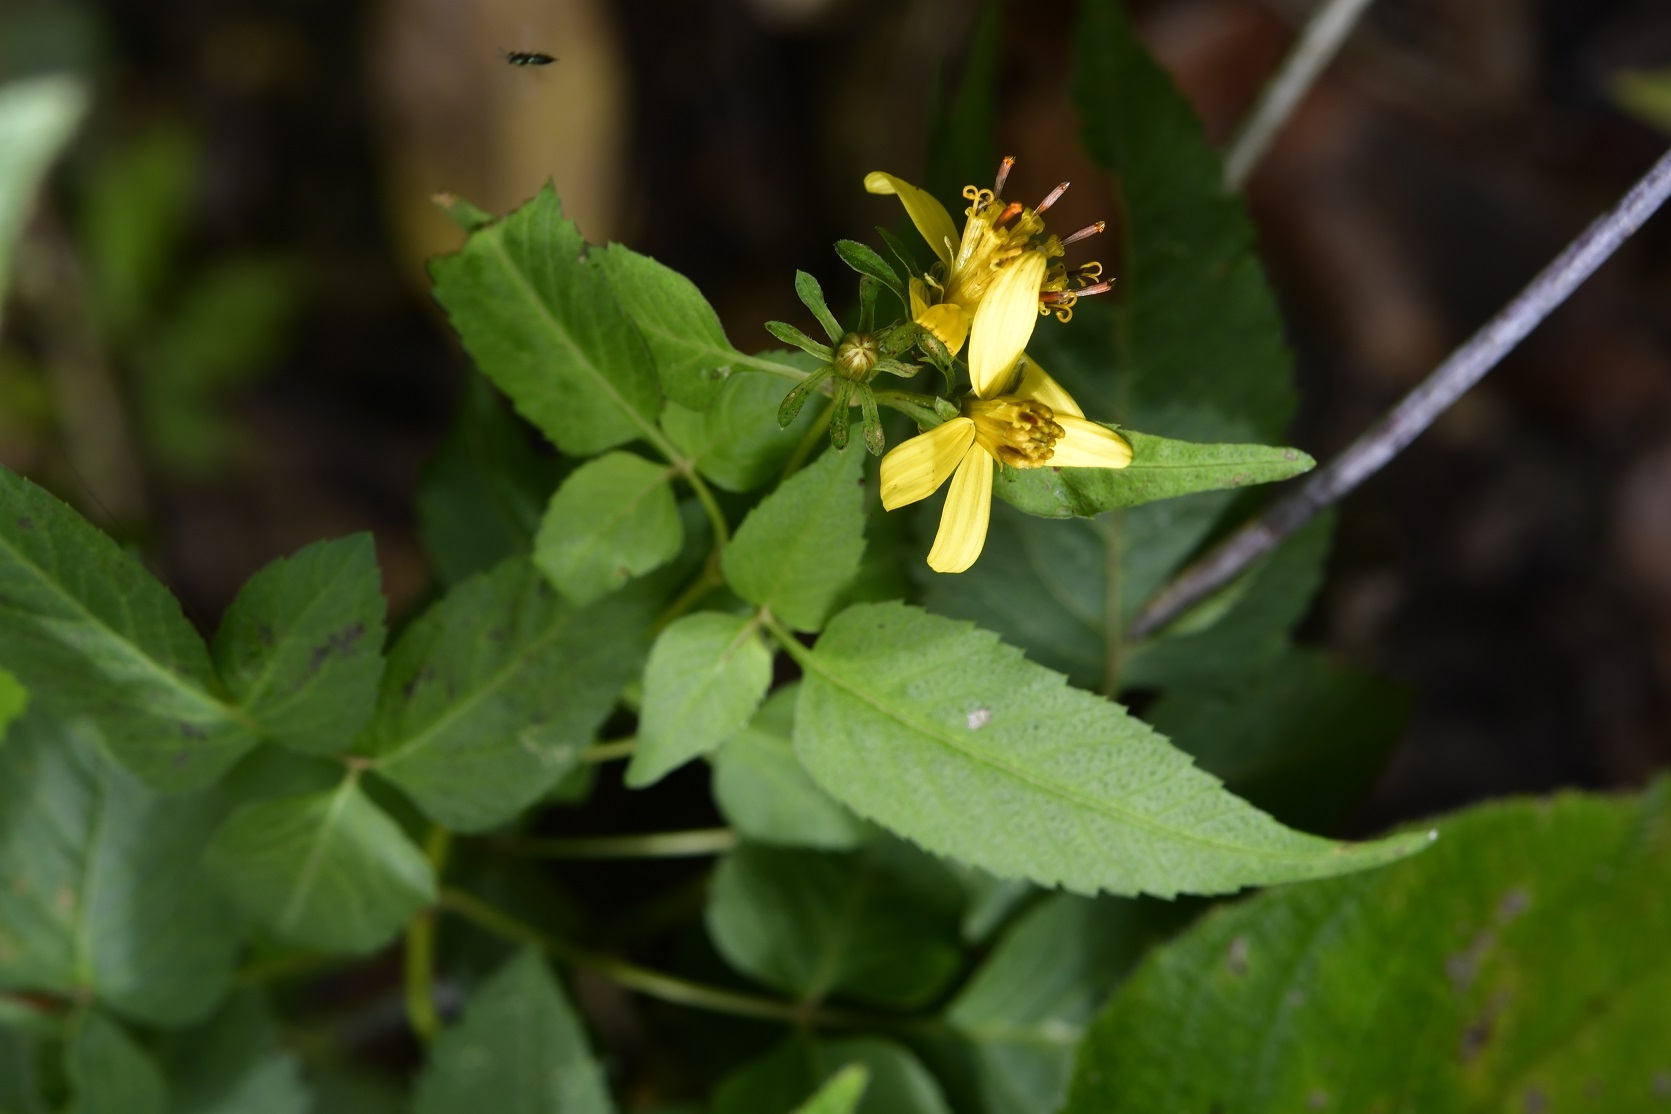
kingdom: Plantae
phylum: Tracheophyta
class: Magnoliopsida
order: Asterales
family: Asteraceae
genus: Bidens
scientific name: Bidens reptans
